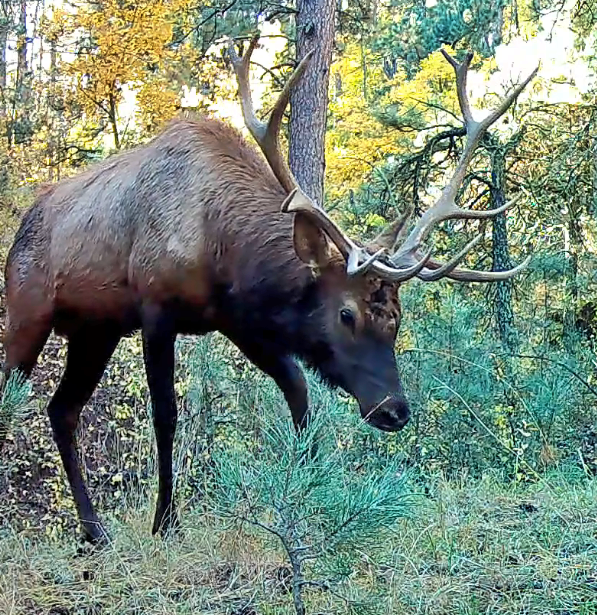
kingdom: Animalia
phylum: Chordata
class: Mammalia
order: Artiodactyla
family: Cervidae
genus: Cervus
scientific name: Cervus elaphus
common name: Red deer
